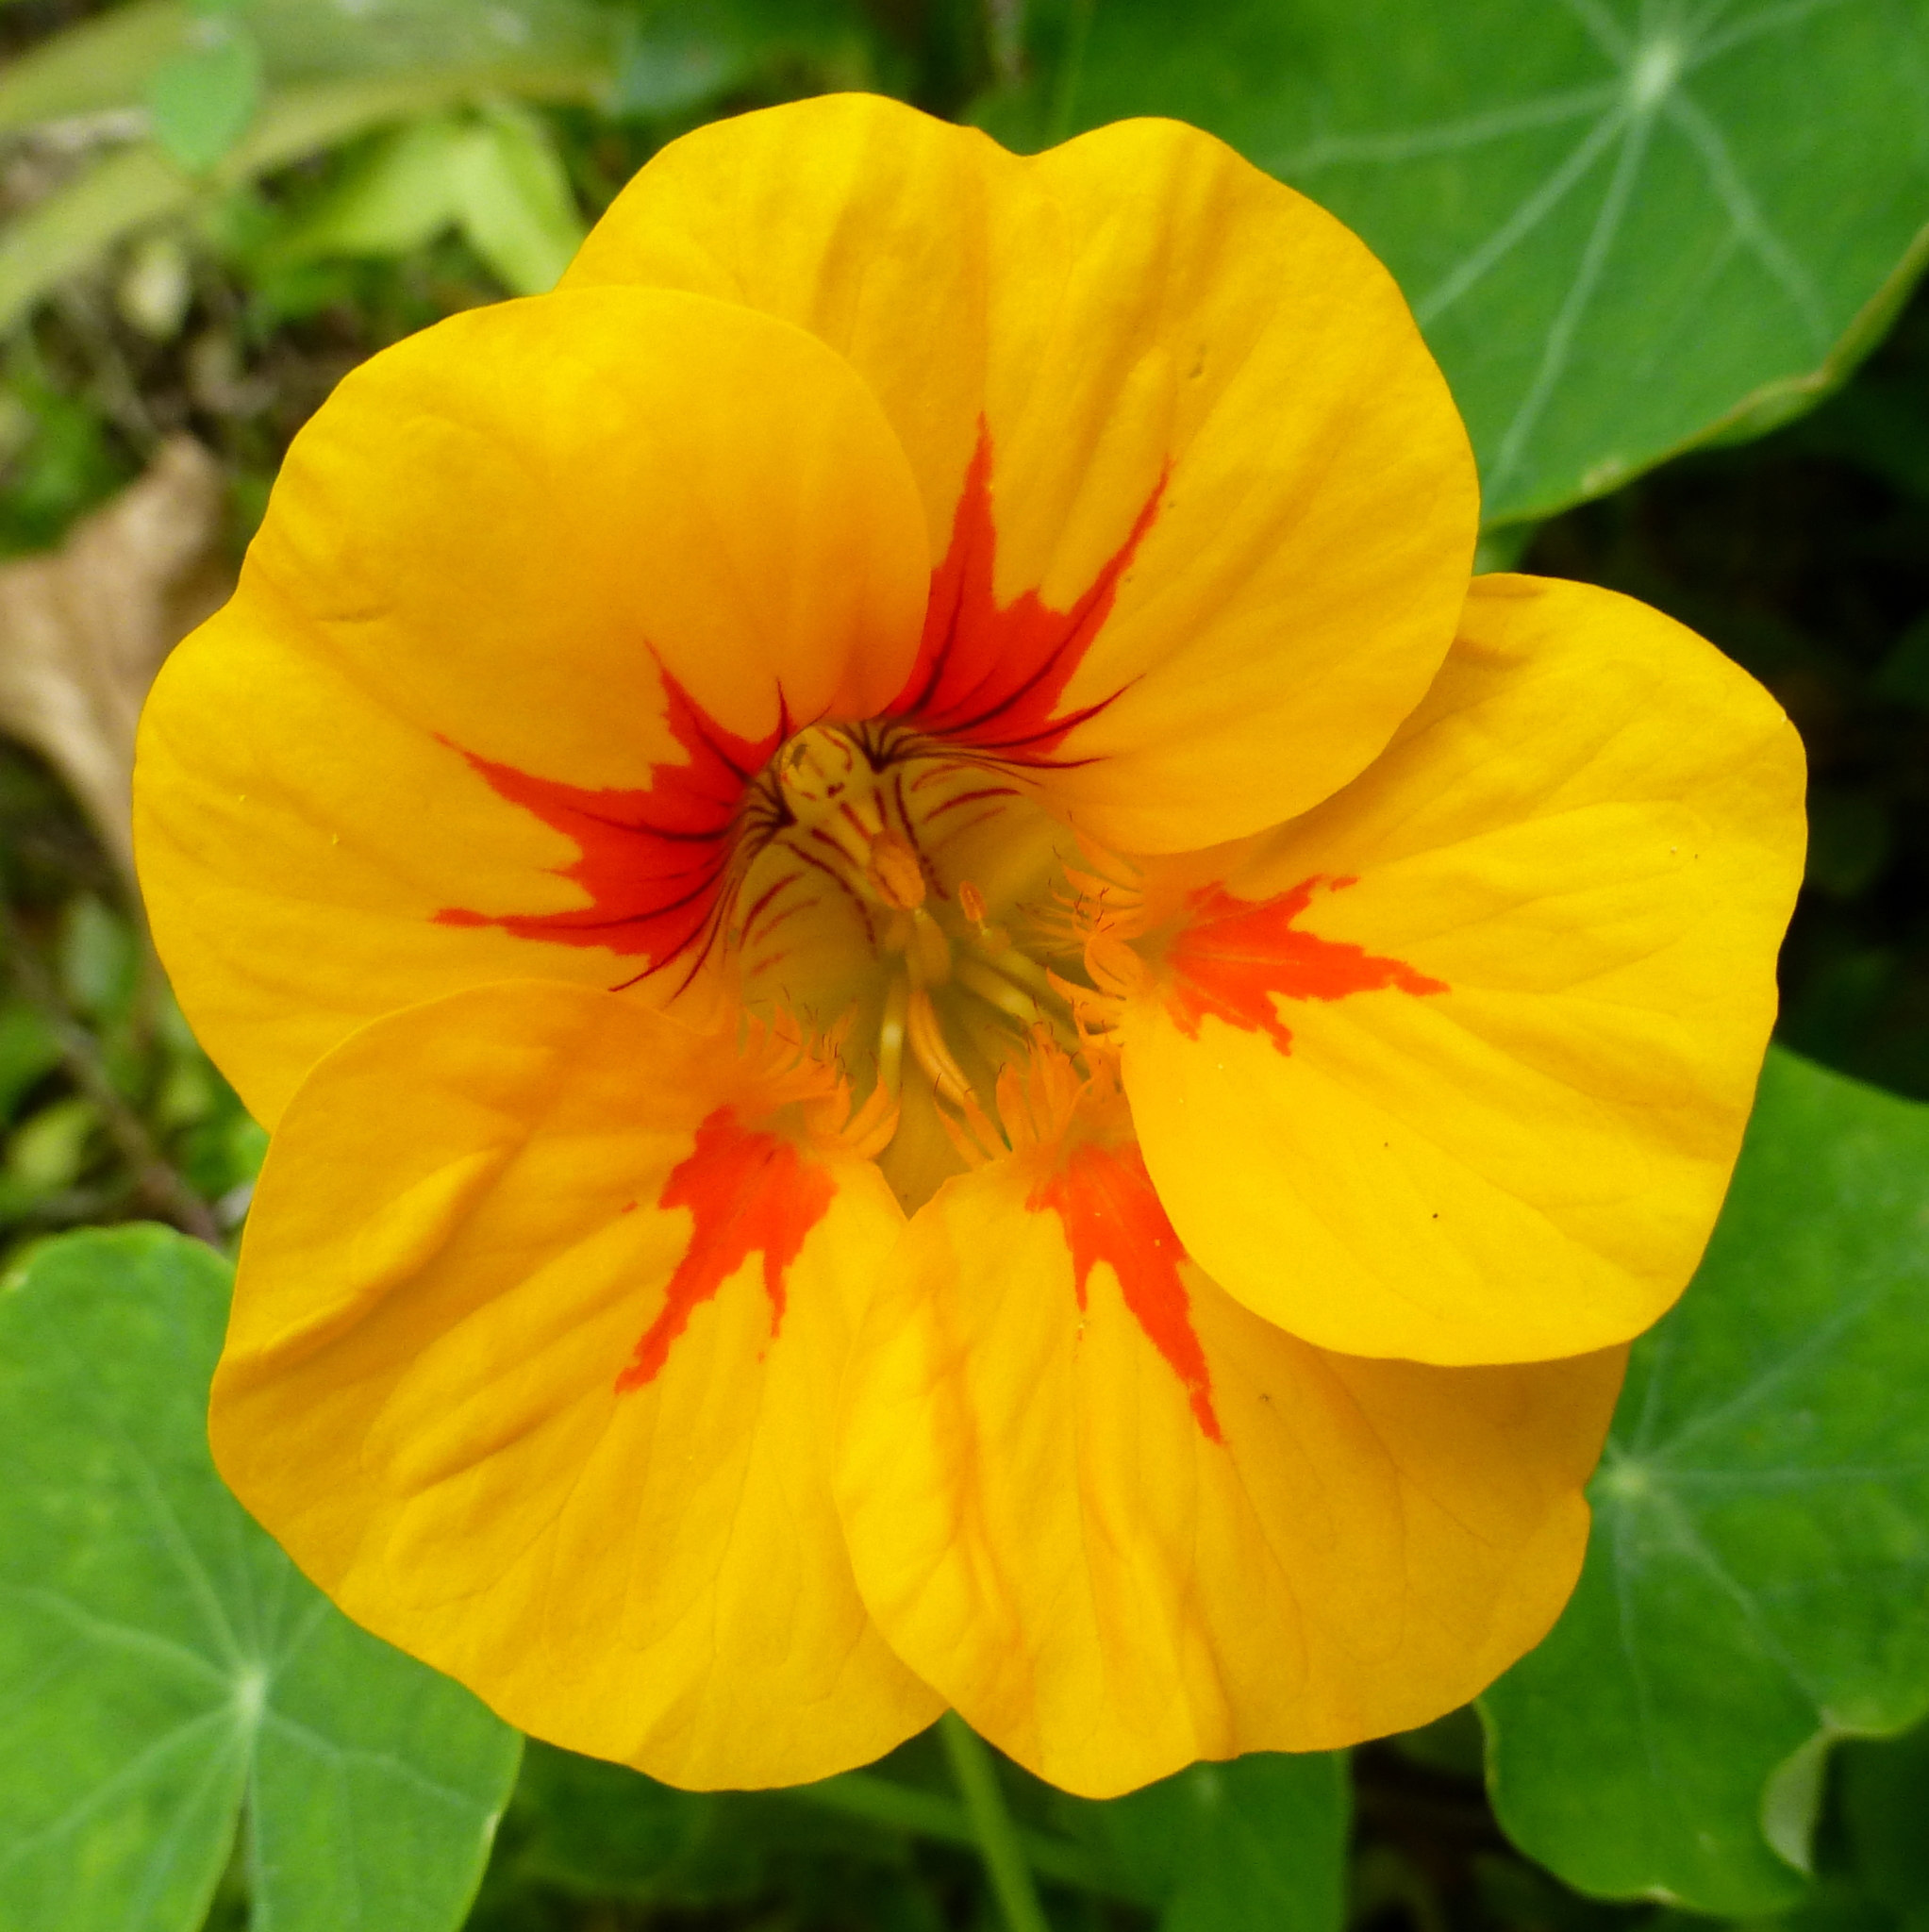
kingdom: Plantae
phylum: Tracheophyta
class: Magnoliopsida
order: Brassicales
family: Tropaeolaceae
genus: Tropaeolum
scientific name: Tropaeolum majus
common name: Nasturtium
